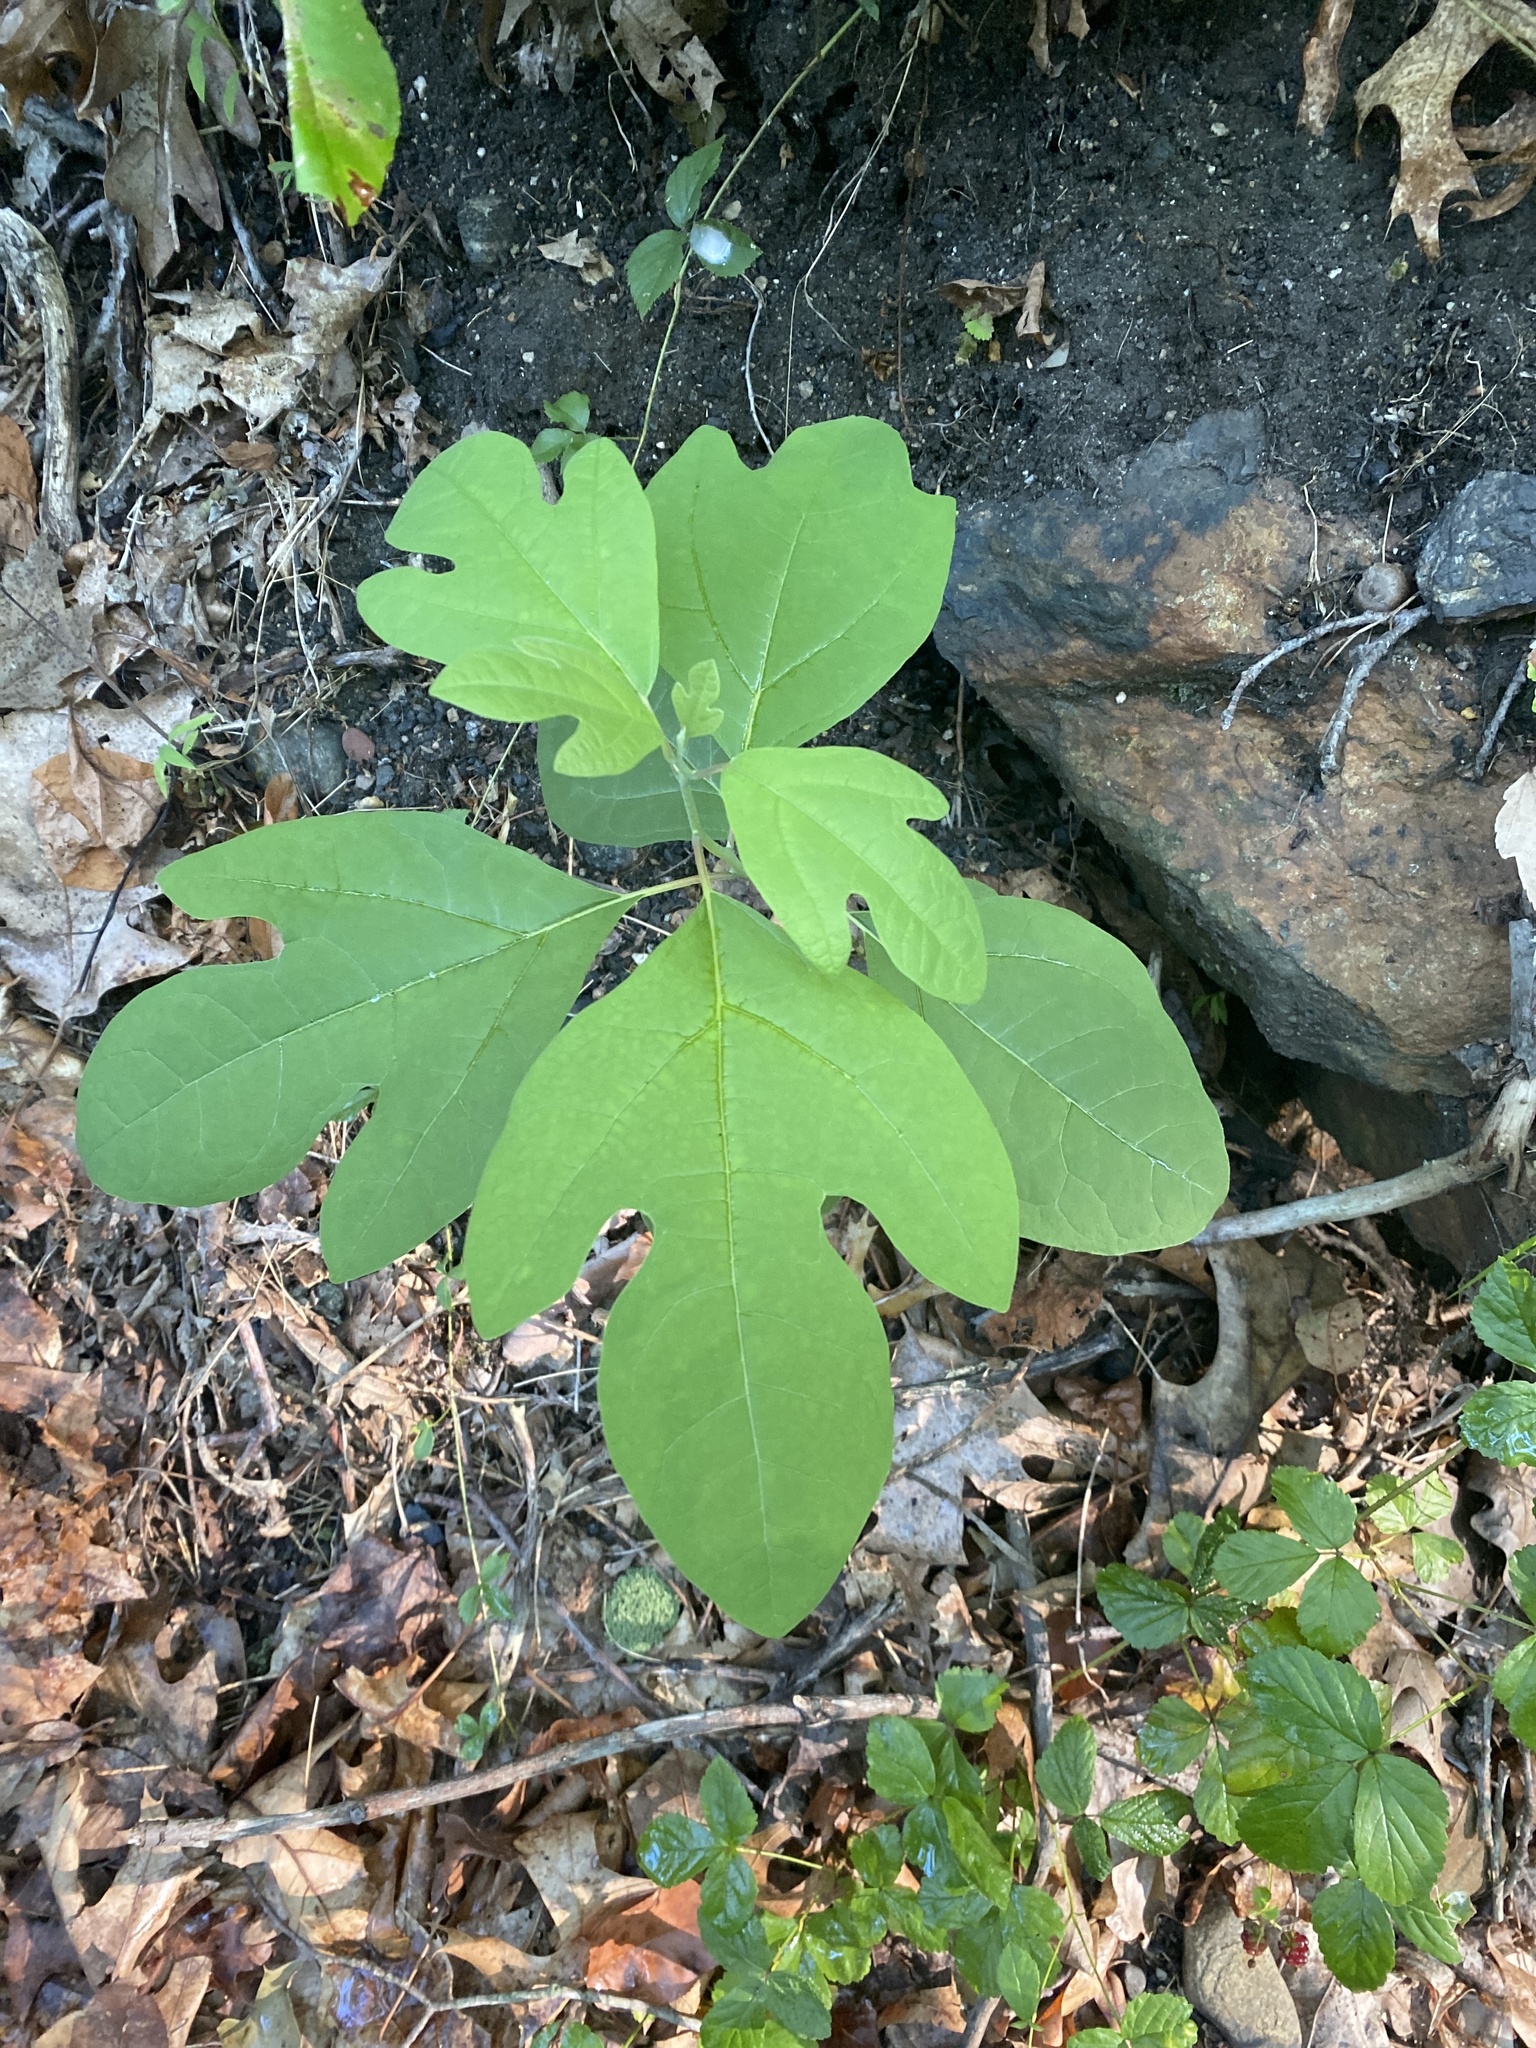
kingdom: Plantae
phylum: Tracheophyta
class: Magnoliopsida
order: Laurales
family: Lauraceae
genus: Sassafras
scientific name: Sassafras albidum
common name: Sassafras
